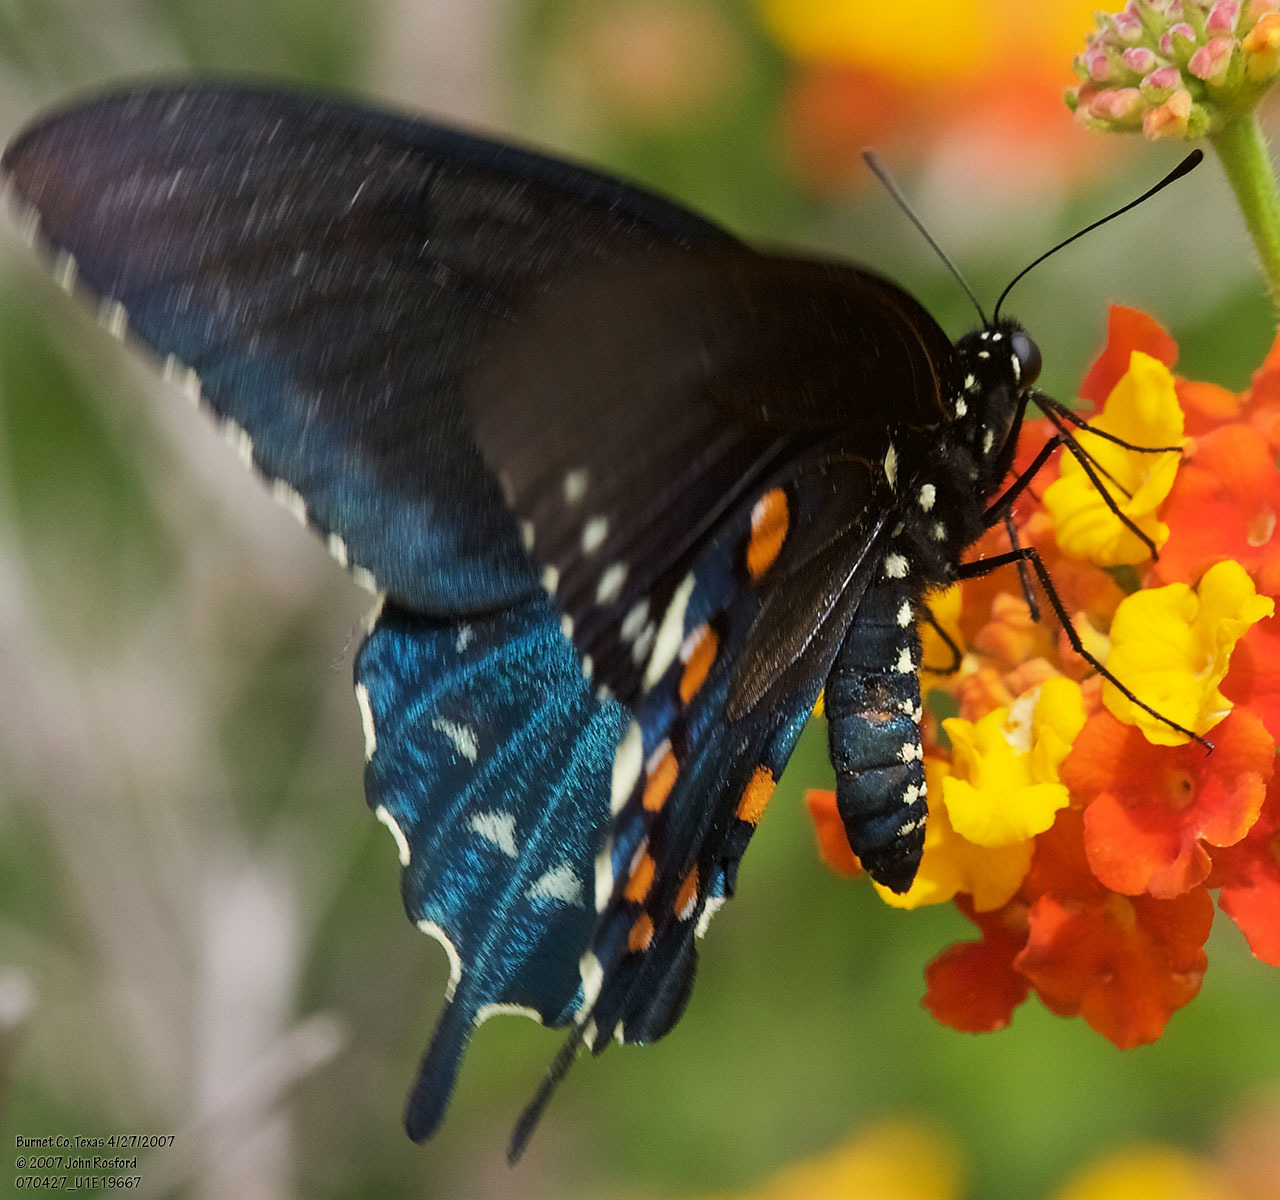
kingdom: Animalia
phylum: Arthropoda
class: Insecta
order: Lepidoptera
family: Papilionidae
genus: Battus
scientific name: Battus philenor
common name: Pipevine swallowtail
